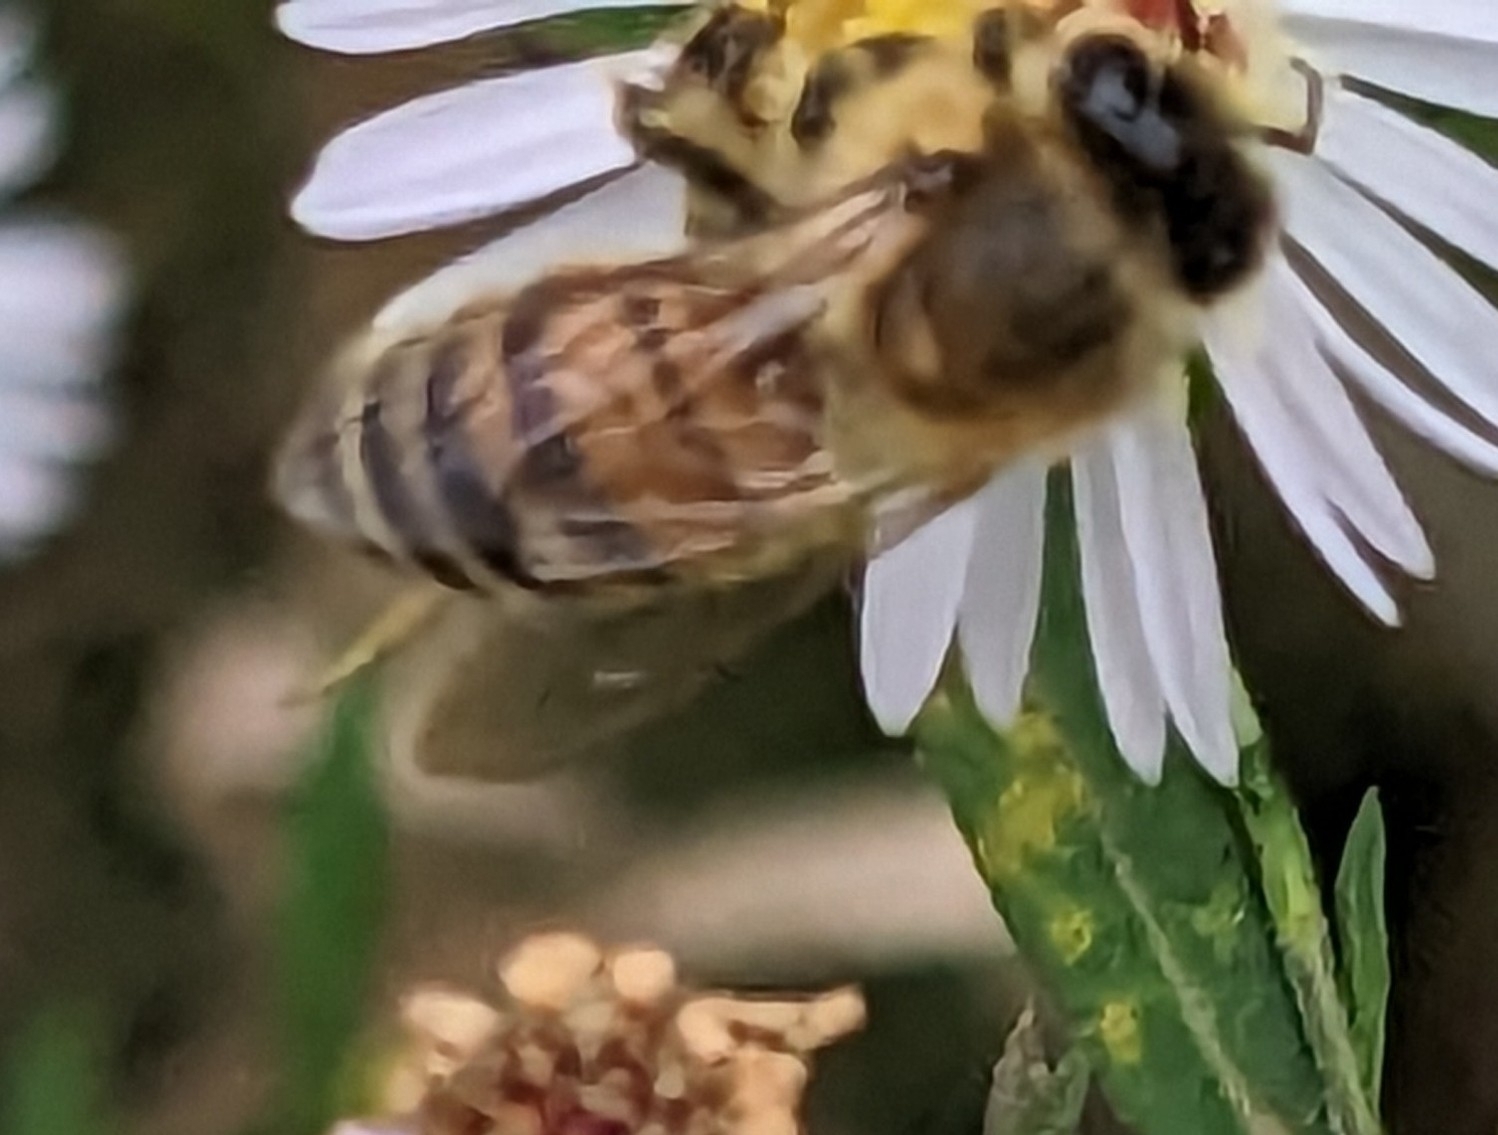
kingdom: Animalia
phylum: Arthropoda
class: Insecta
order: Hymenoptera
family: Apidae
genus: Apis
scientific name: Apis mellifera
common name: Honey bee
